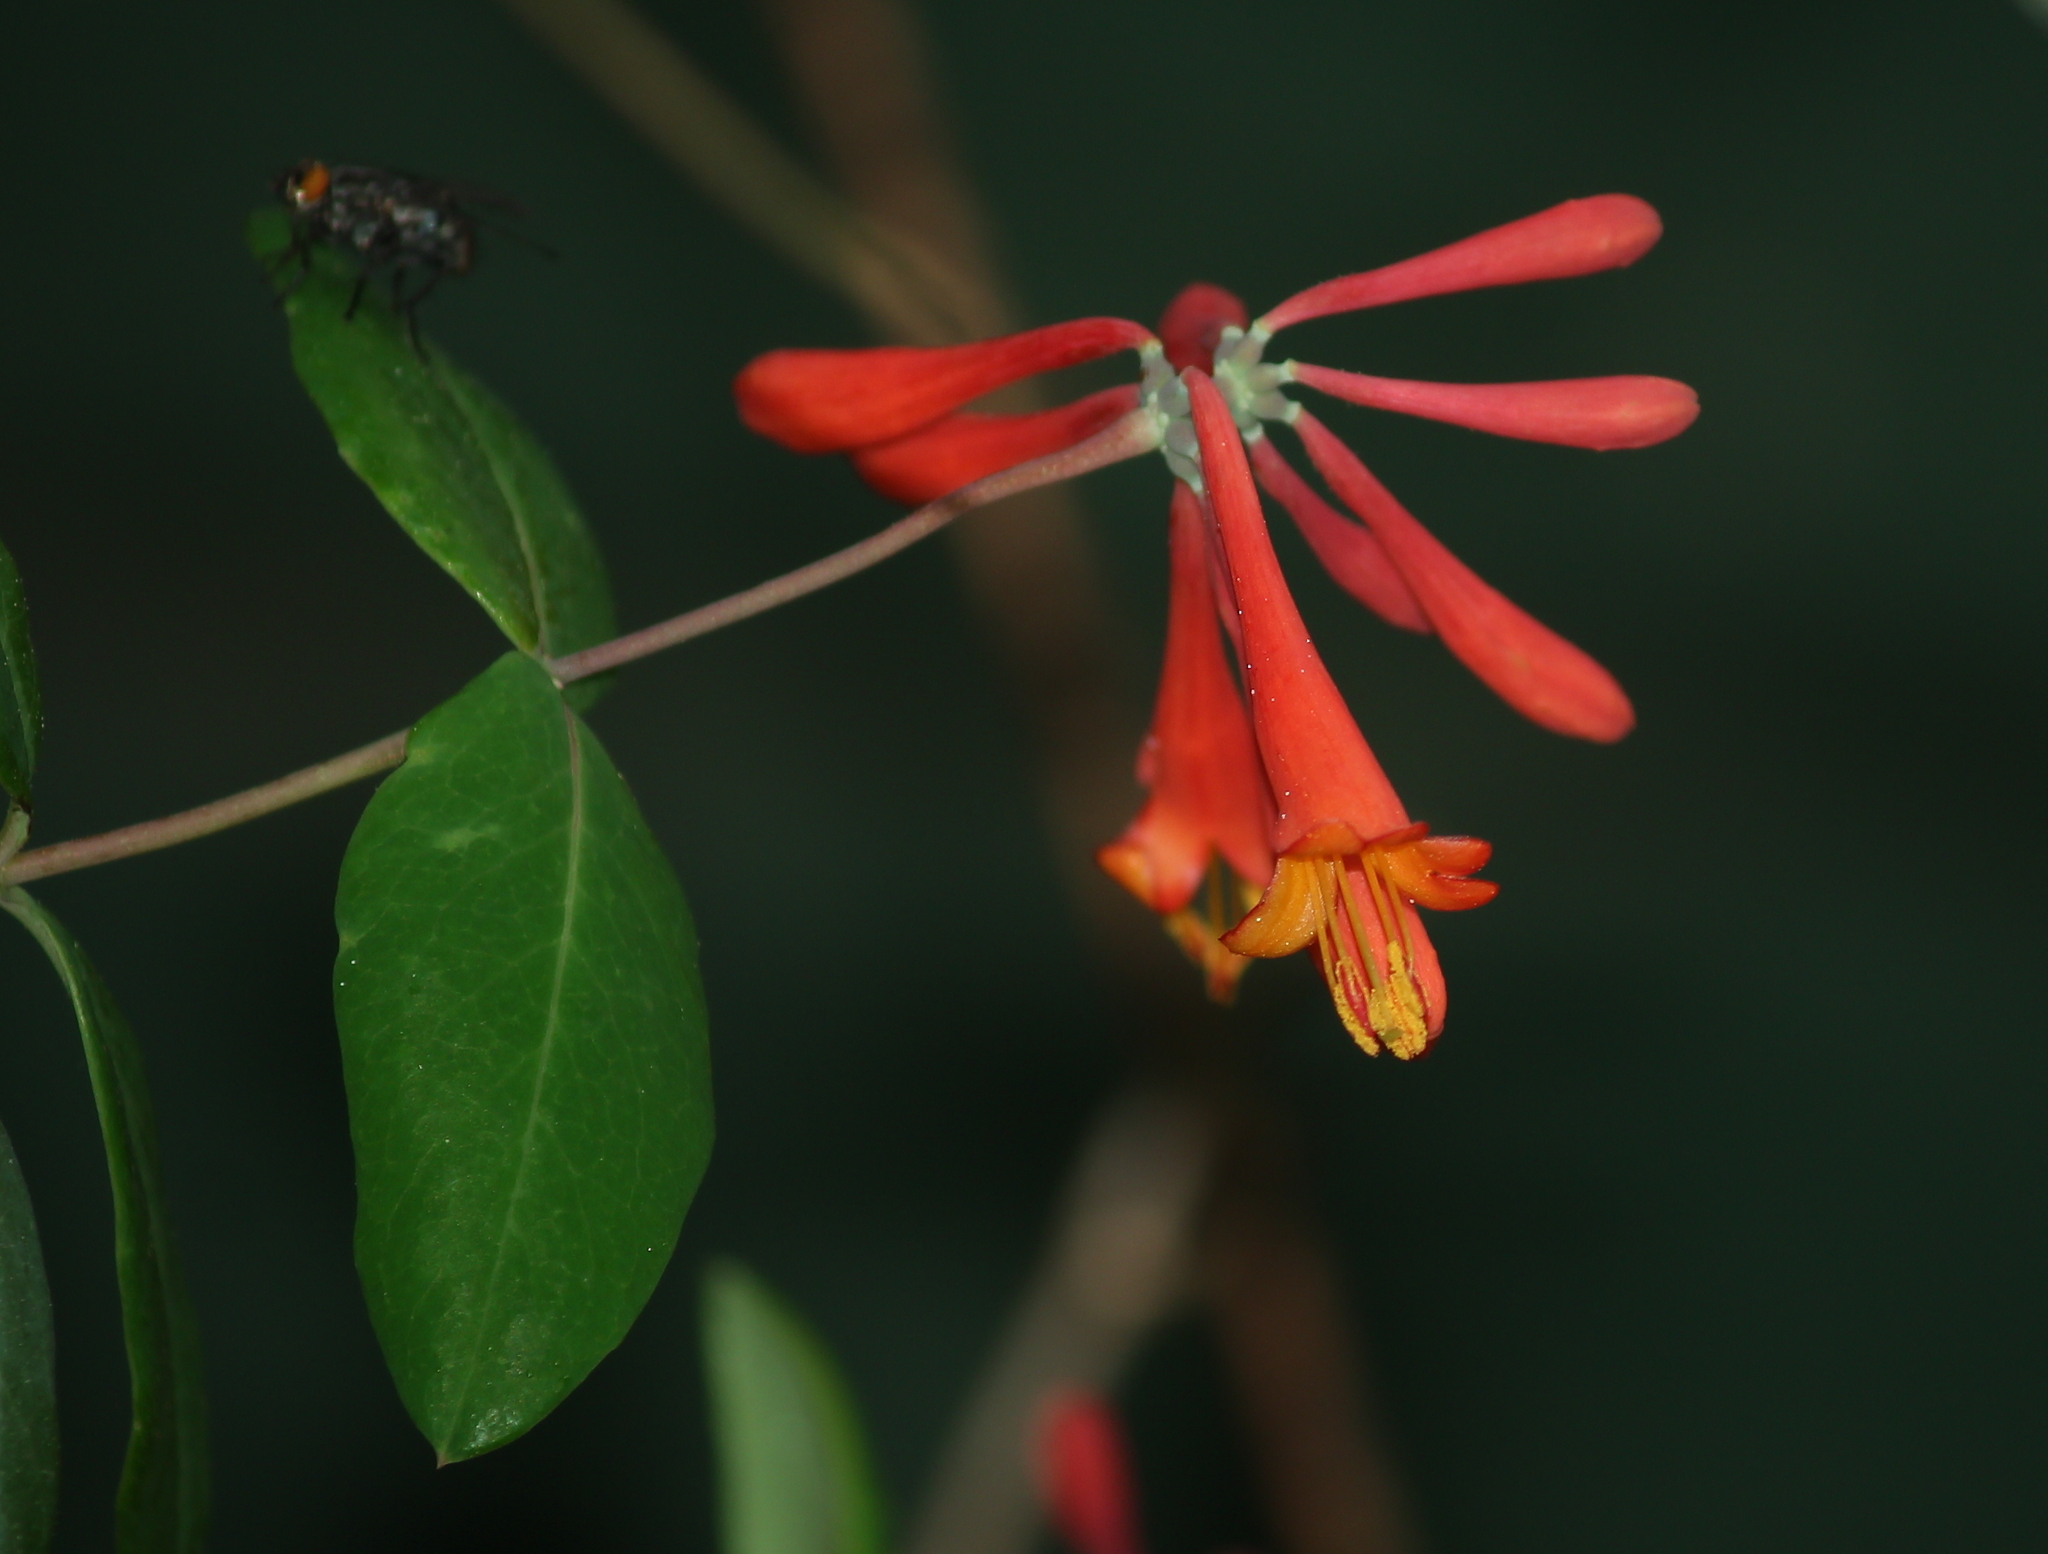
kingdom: Plantae
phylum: Tracheophyta
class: Magnoliopsida
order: Dipsacales
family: Caprifoliaceae
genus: Lonicera
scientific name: Lonicera sempervirens
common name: Coral honeysuckle
